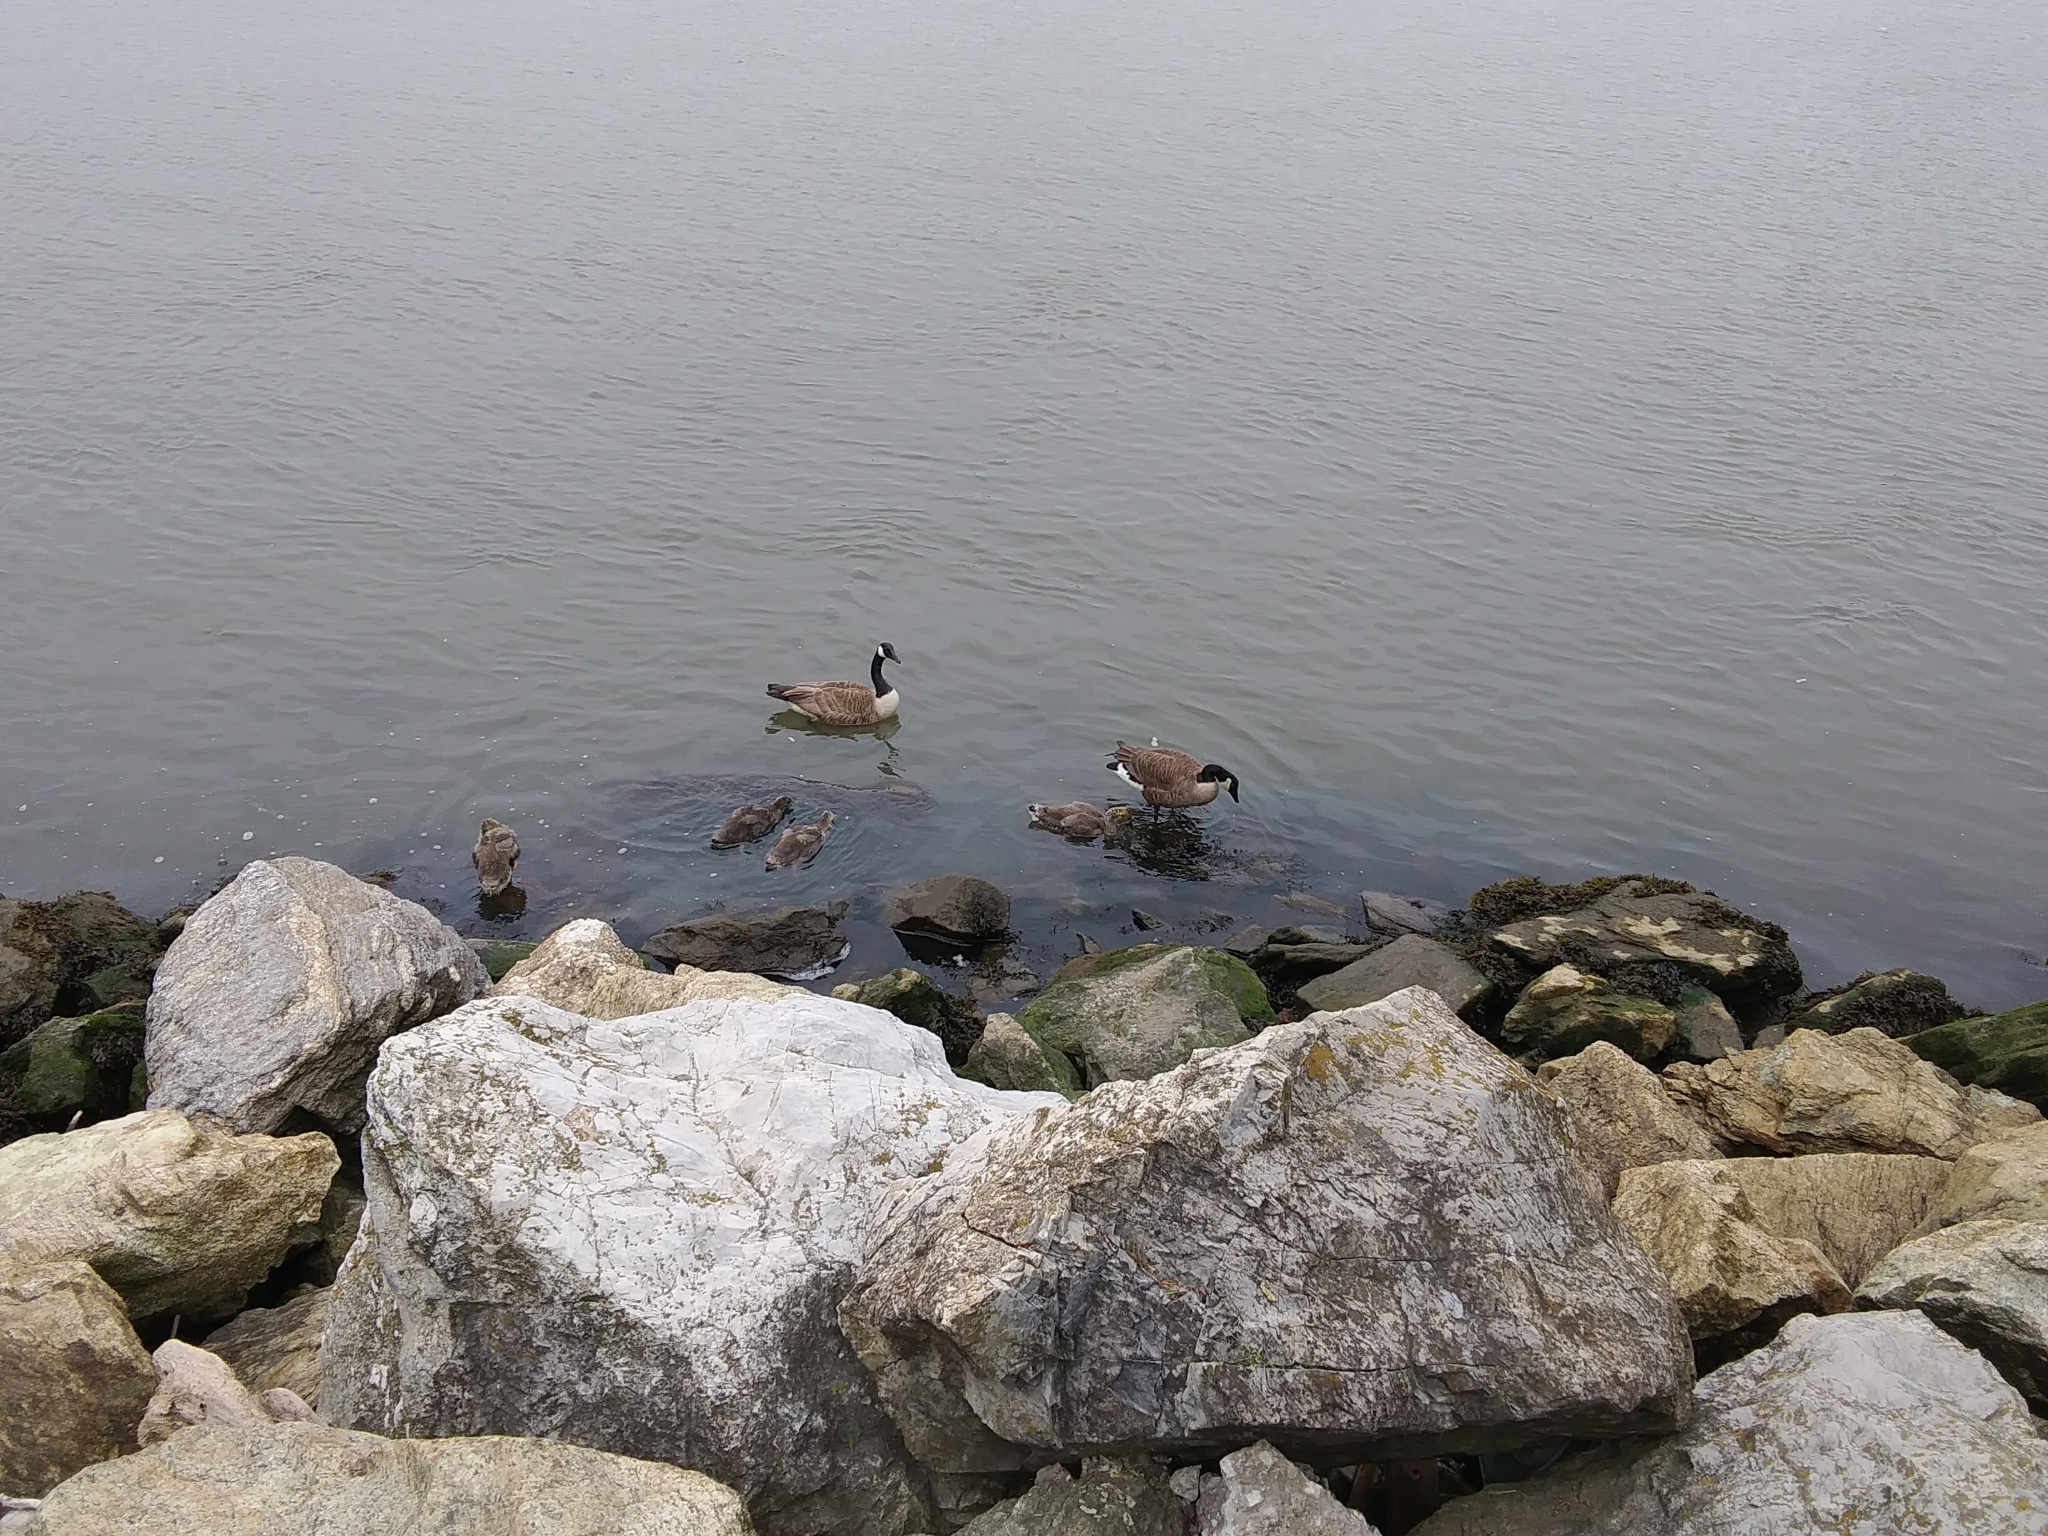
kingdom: Animalia
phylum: Chordata
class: Aves
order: Anseriformes
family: Anatidae
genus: Branta
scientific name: Branta canadensis
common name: Canada goose
